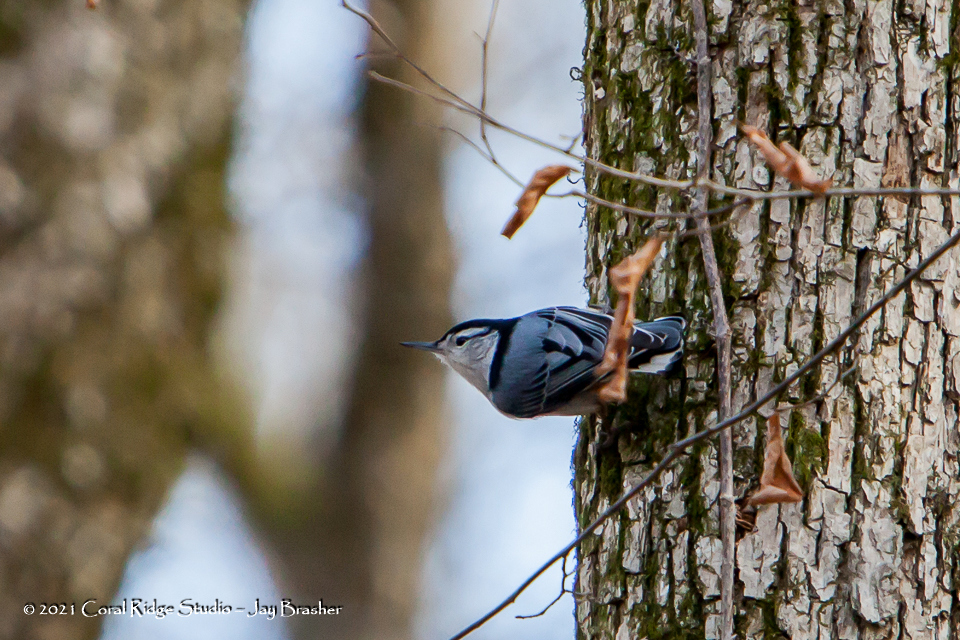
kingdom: Animalia
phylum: Chordata
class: Aves
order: Passeriformes
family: Sittidae
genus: Sitta
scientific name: Sitta carolinensis
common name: White-breasted nuthatch
